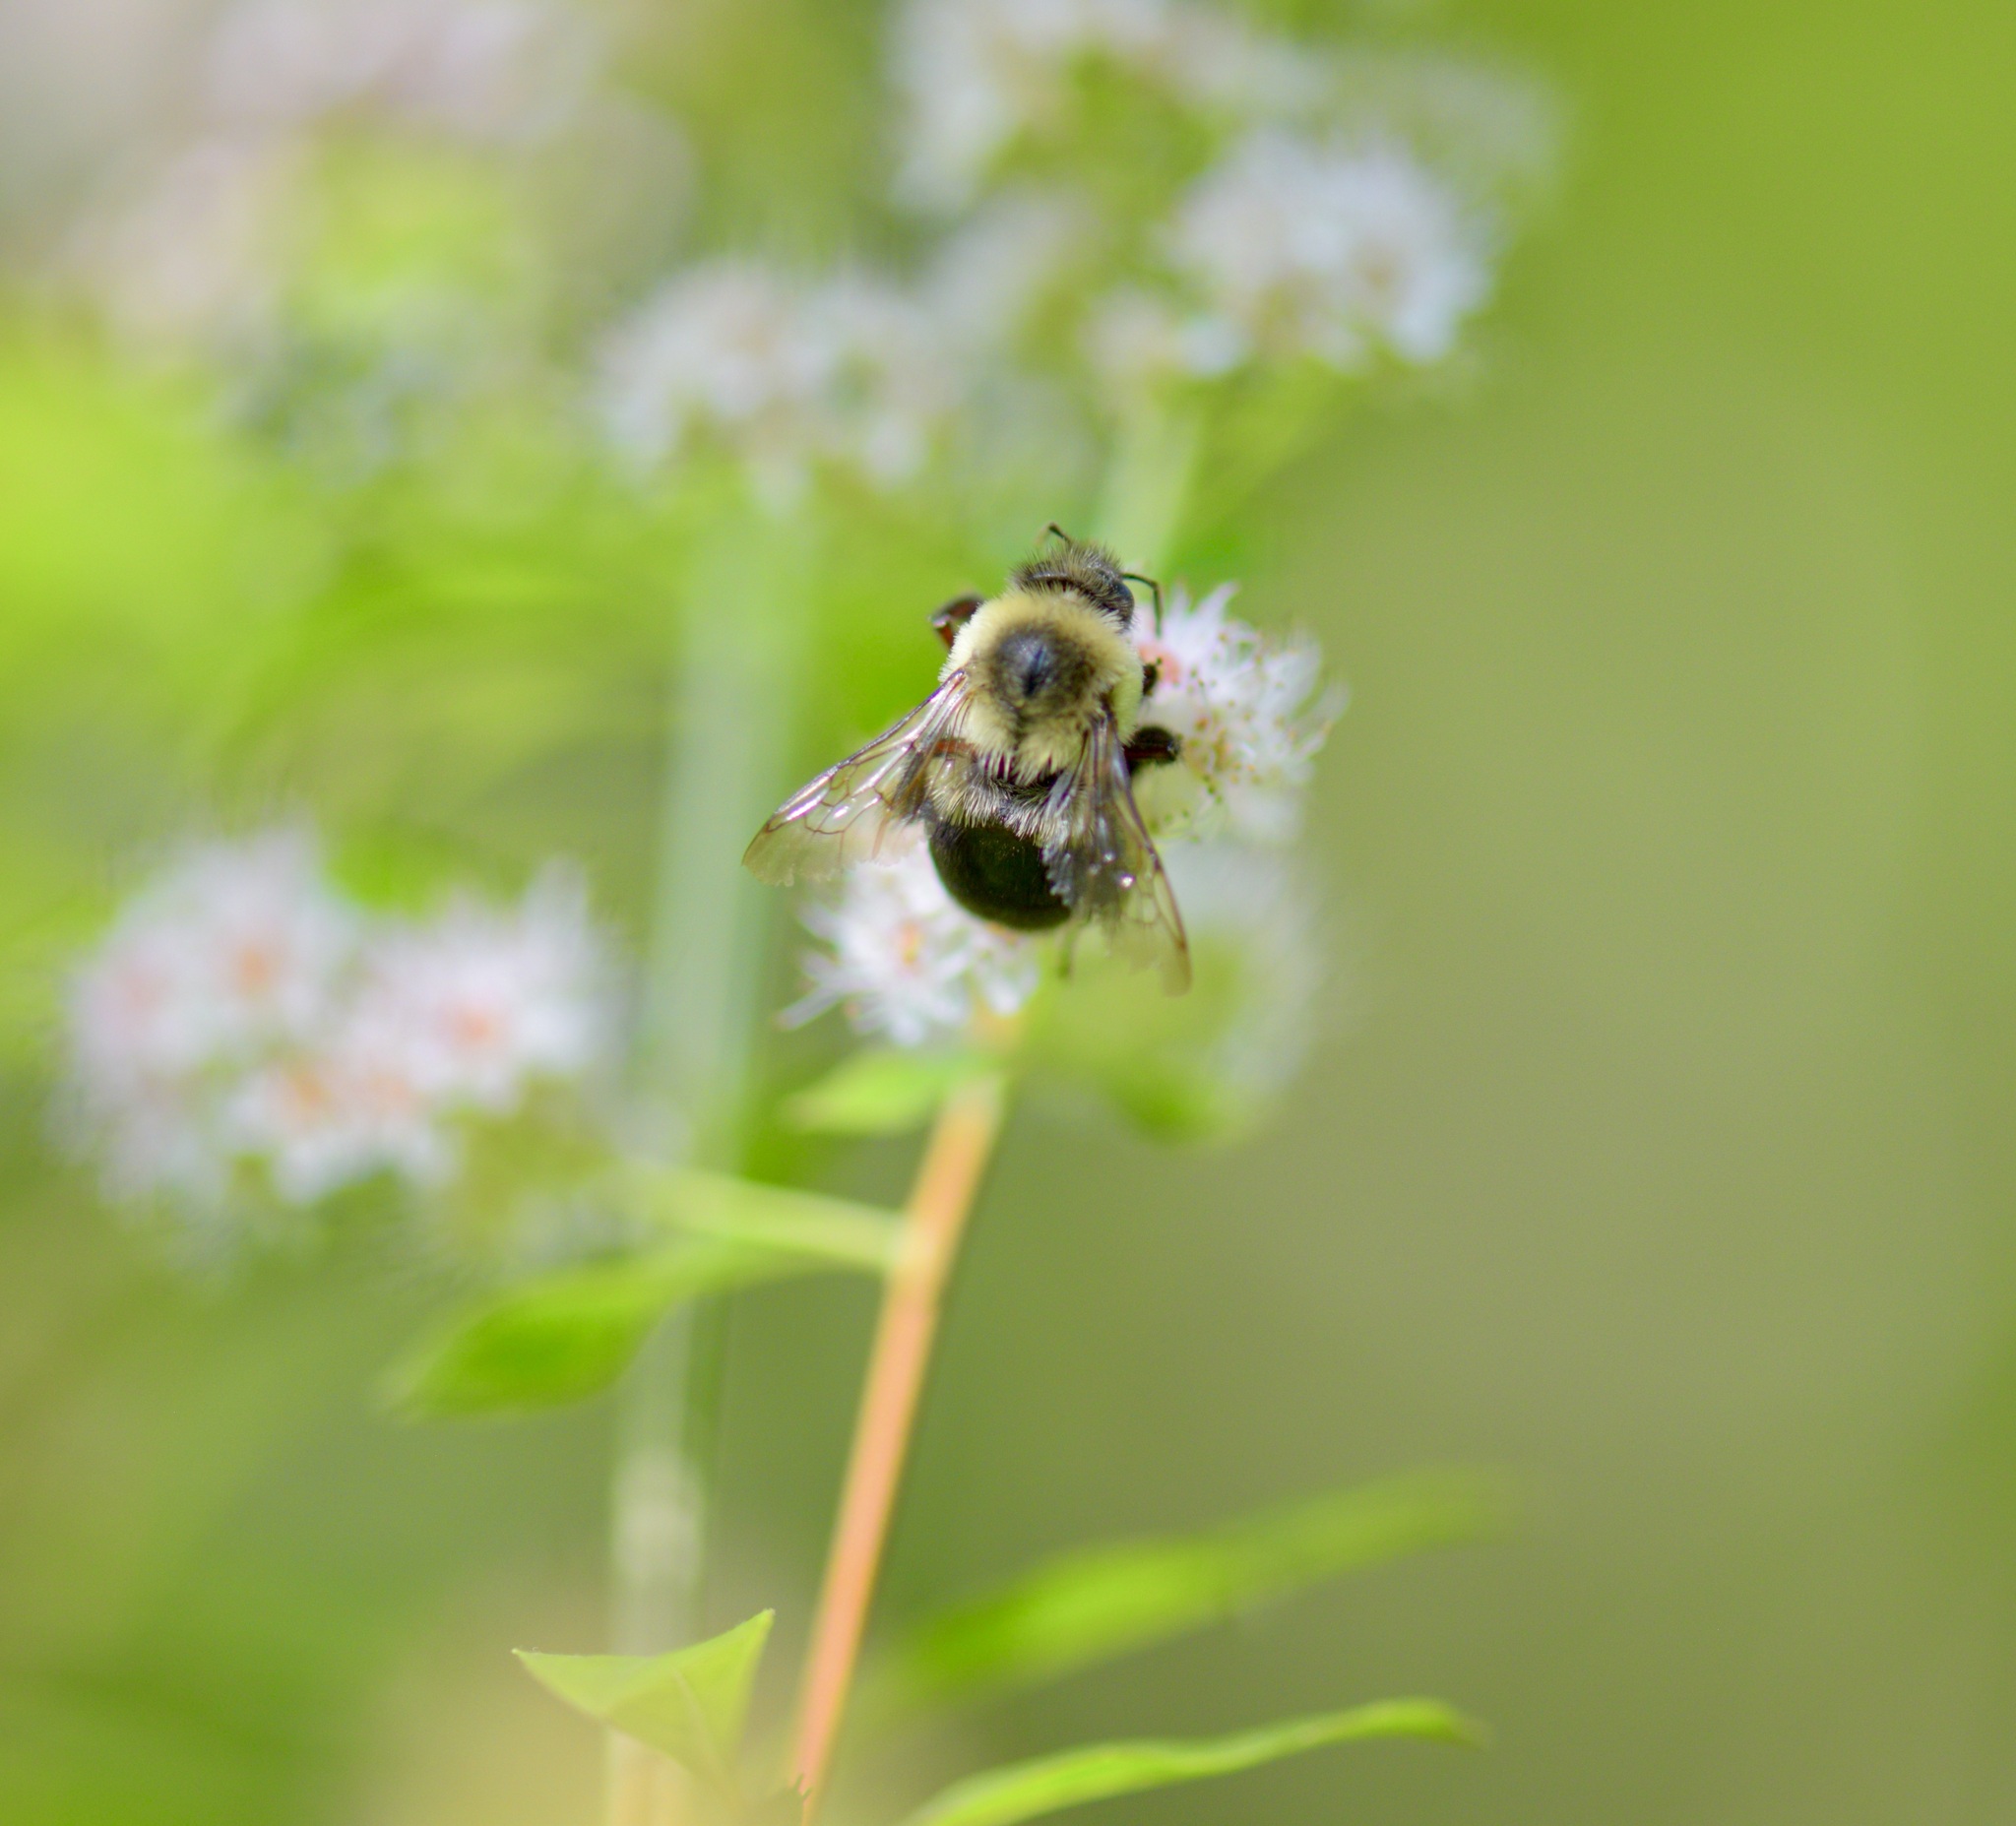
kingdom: Animalia
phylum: Arthropoda
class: Insecta
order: Hymenoptera
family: Apidae
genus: Bombus
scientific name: Bombus impatiens
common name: Common eastern bumble bee
